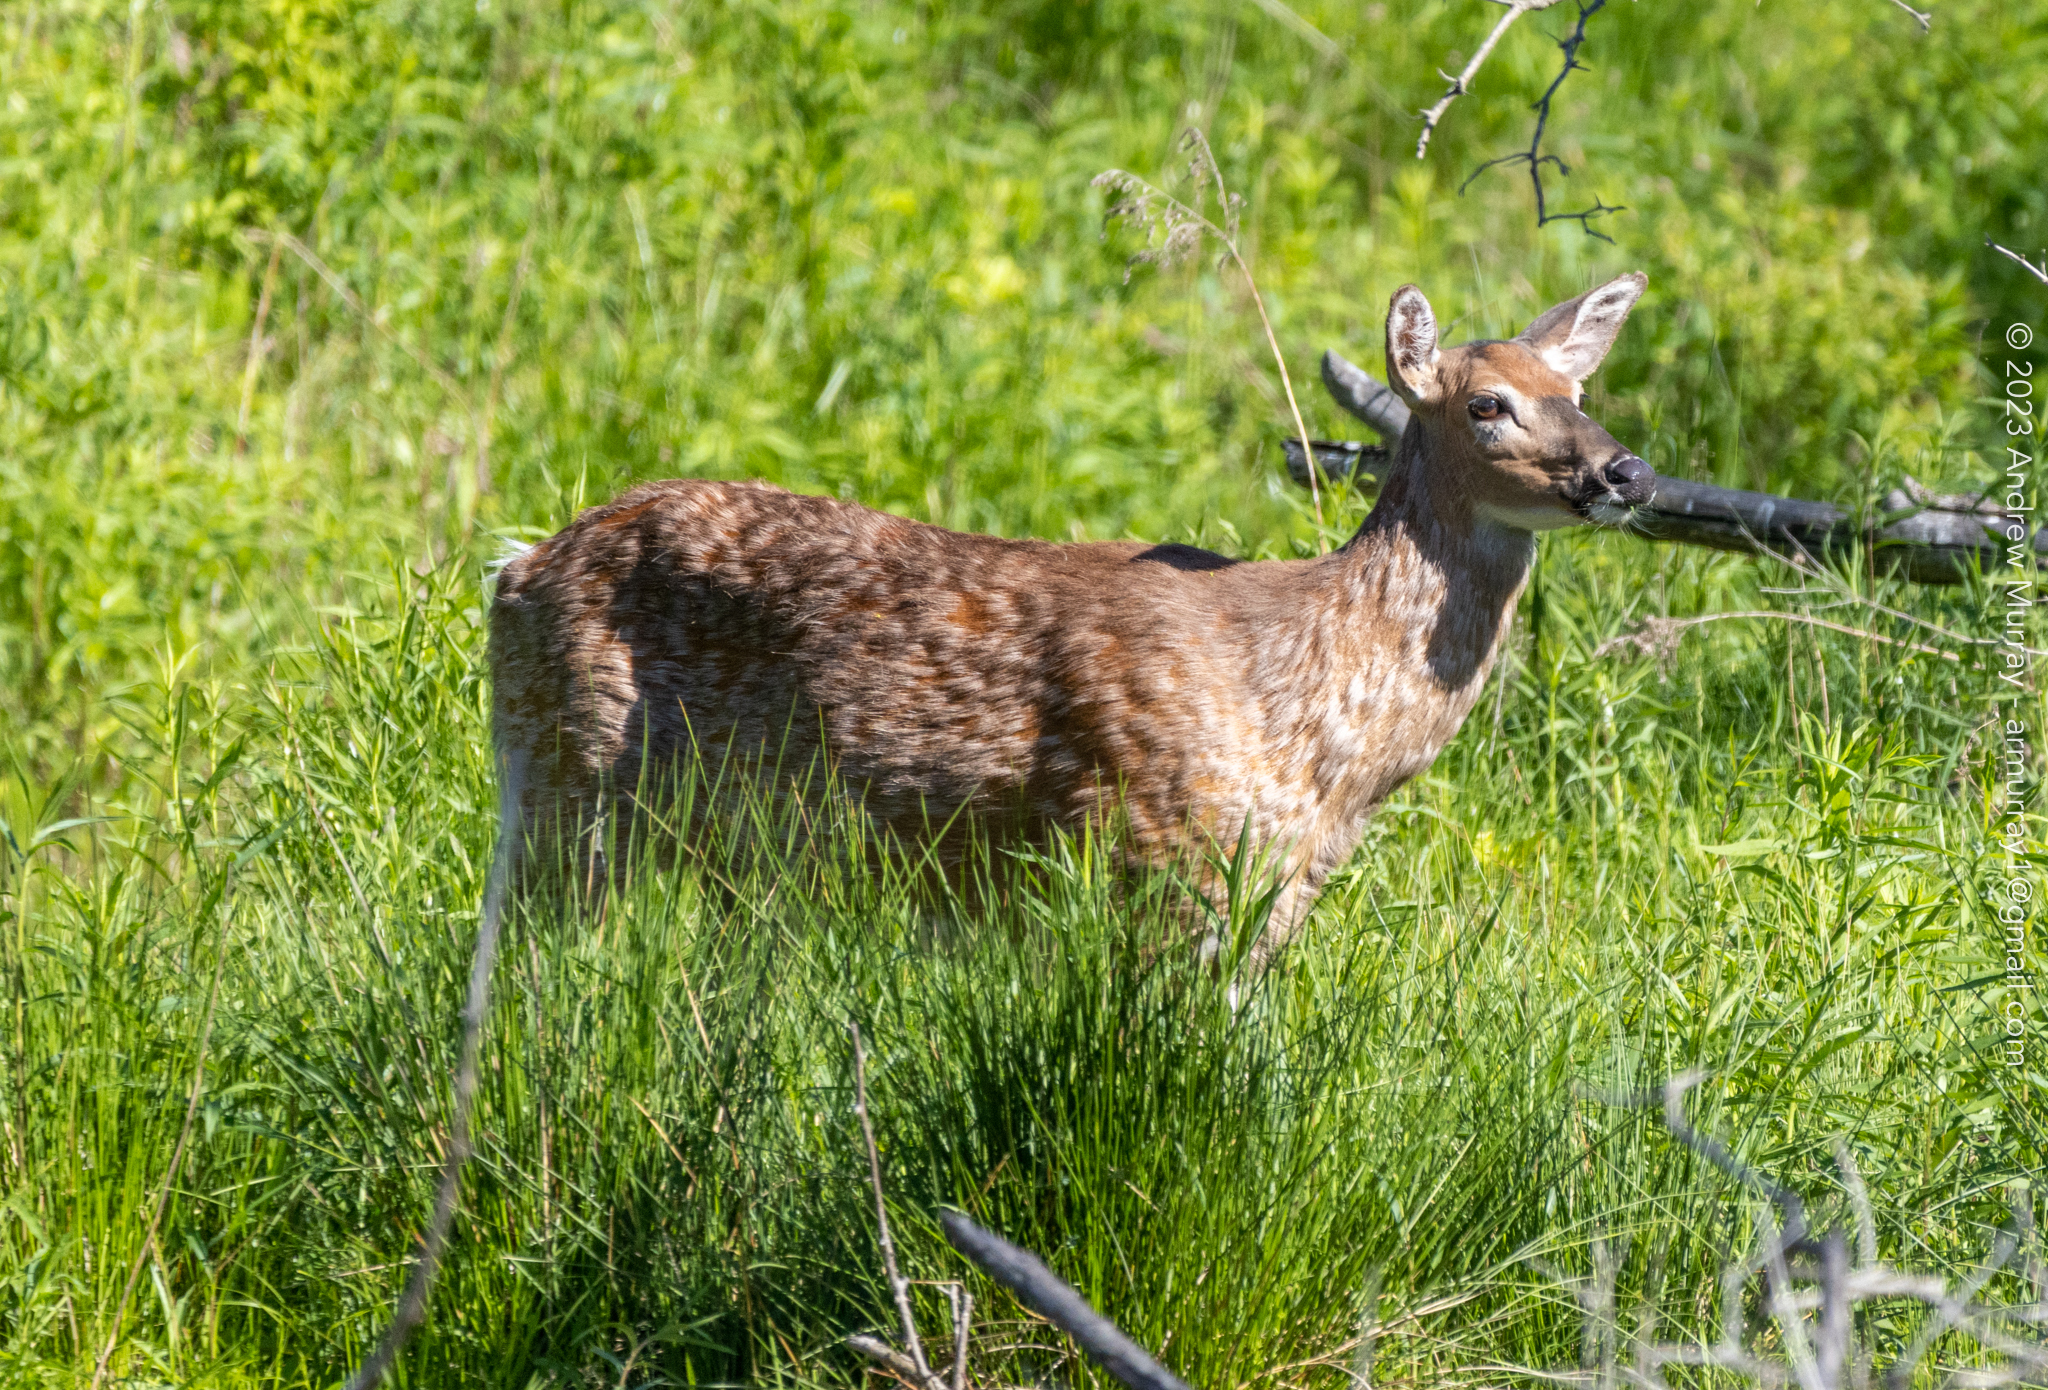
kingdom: Animalia
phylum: Chordata
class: Mammalia
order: Artiodactyla
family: Cervidae
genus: Odocoileus
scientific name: Odocoileus virginianus
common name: White-tailed deer
